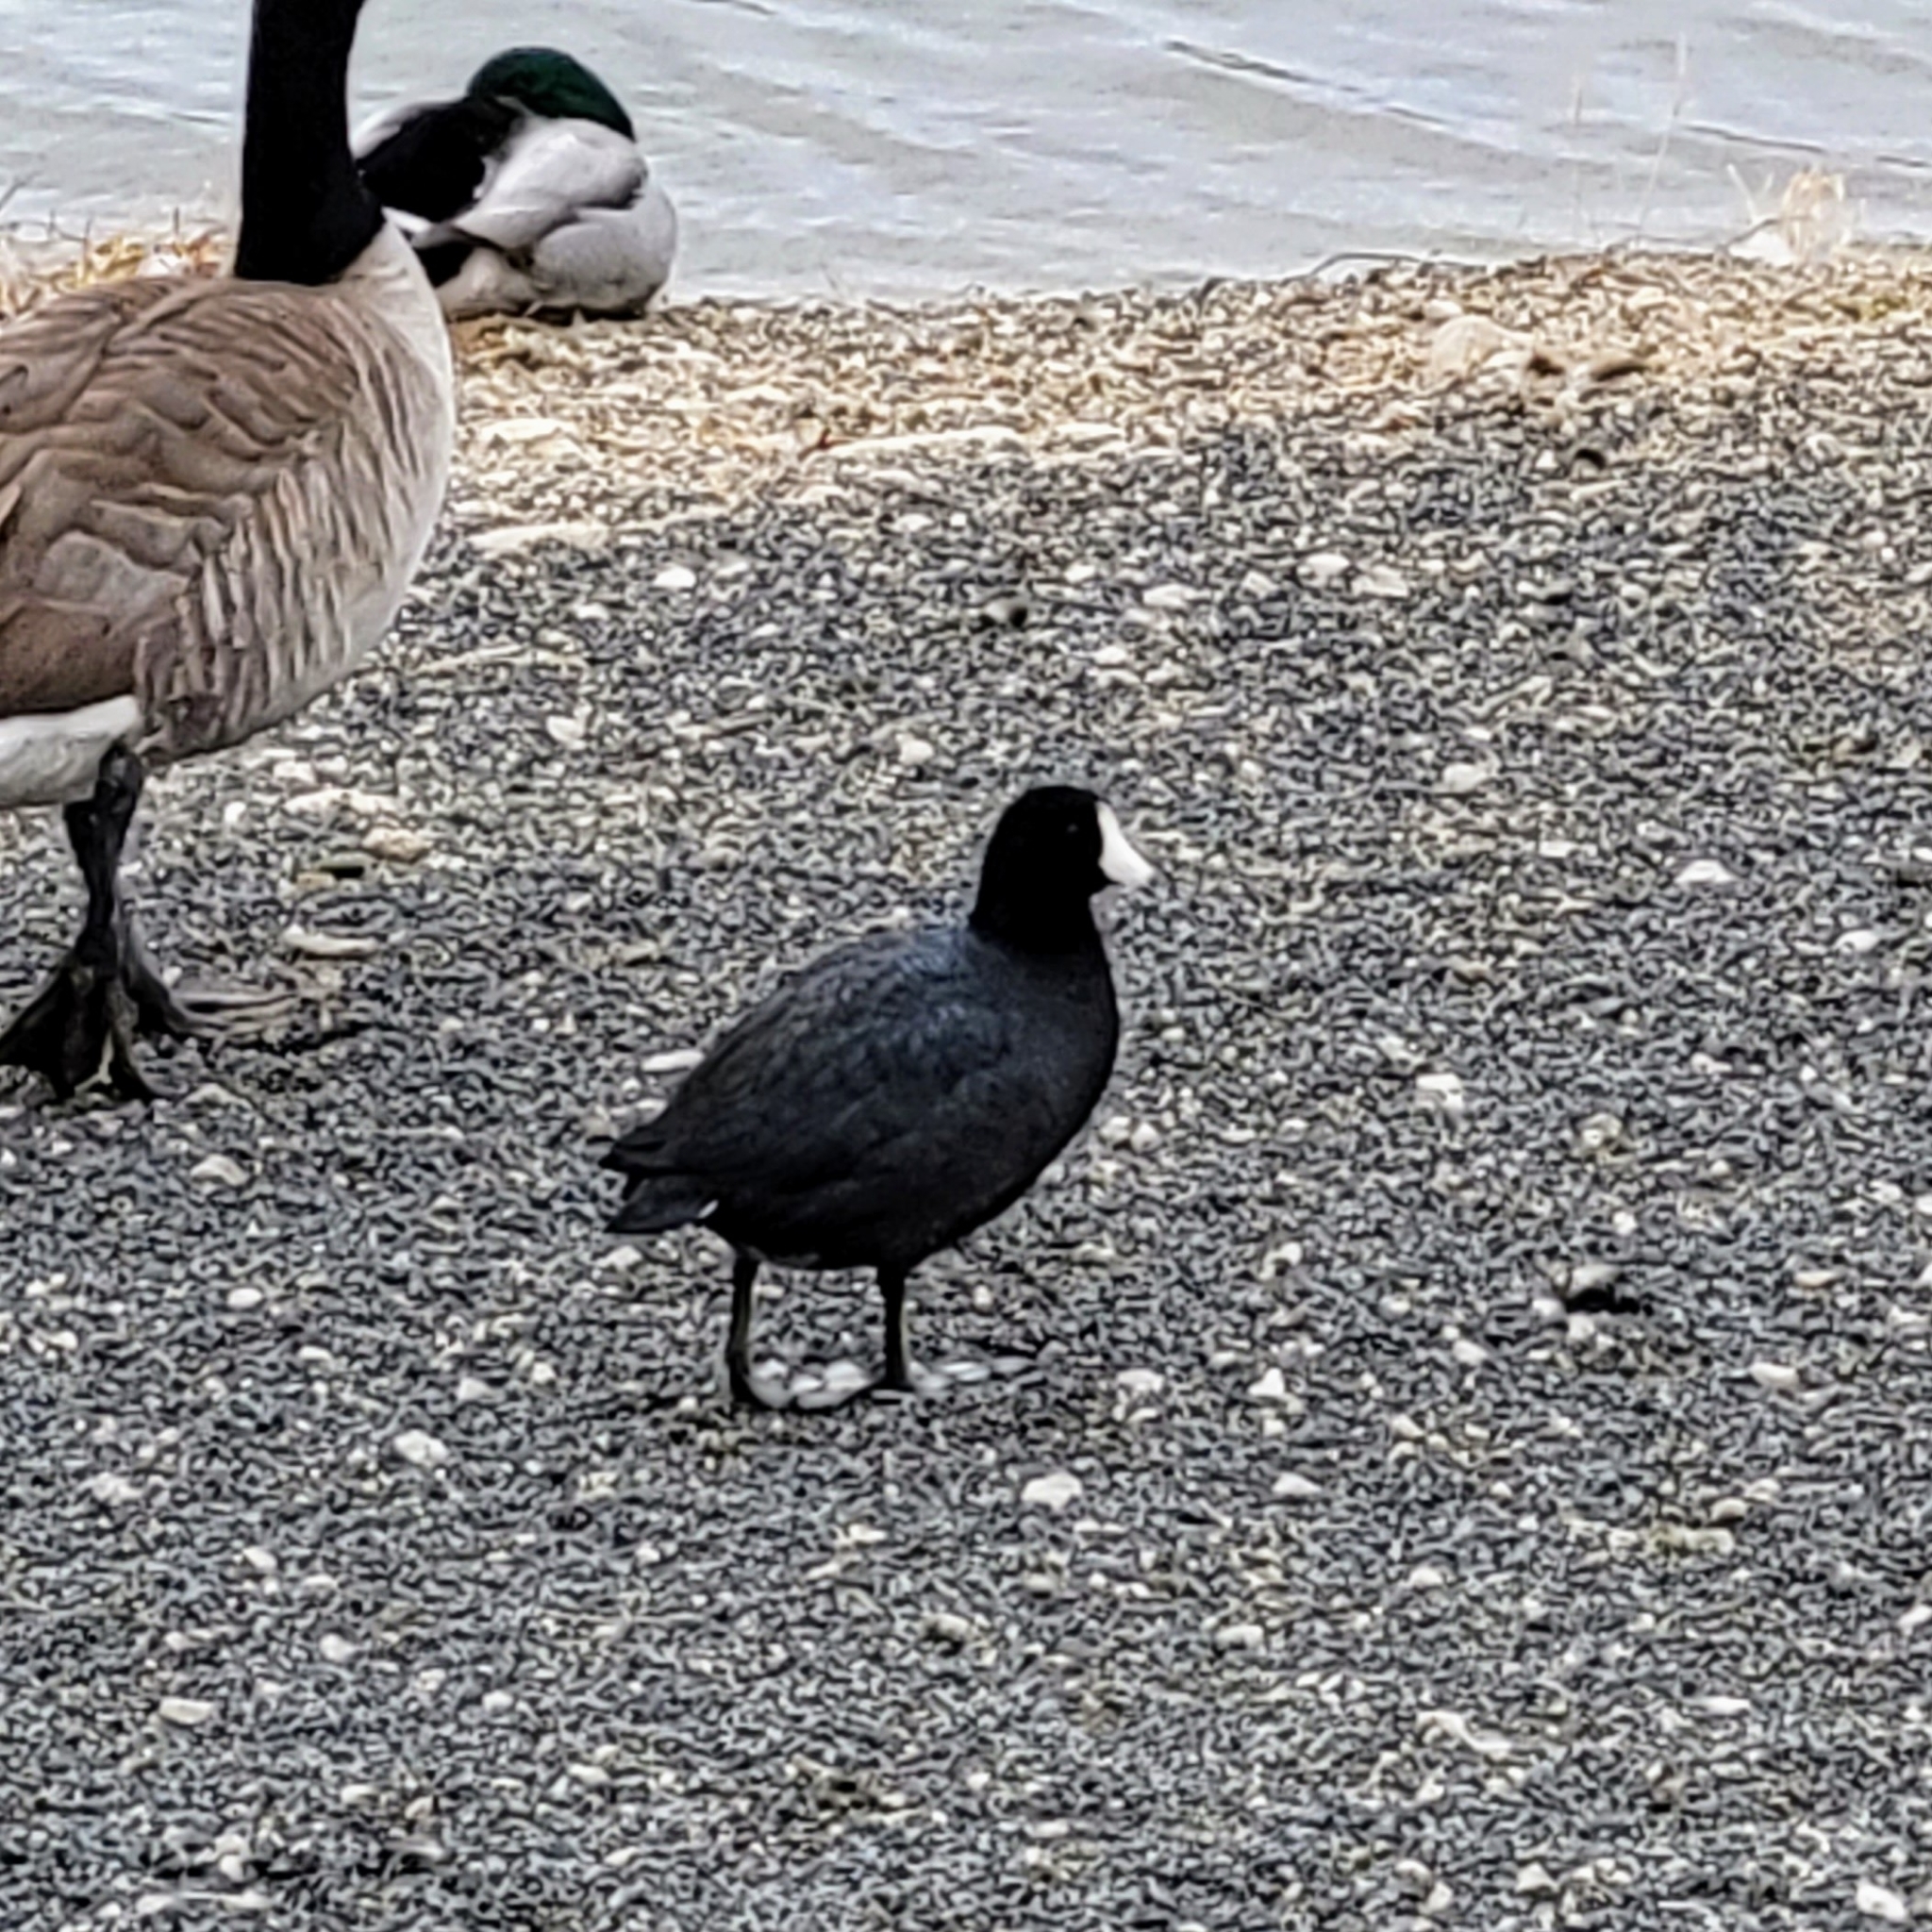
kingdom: Animalia
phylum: Chordata
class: Aves
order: Gruiformes
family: Rallidae
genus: Fulica
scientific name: Fulica americana
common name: American coot
